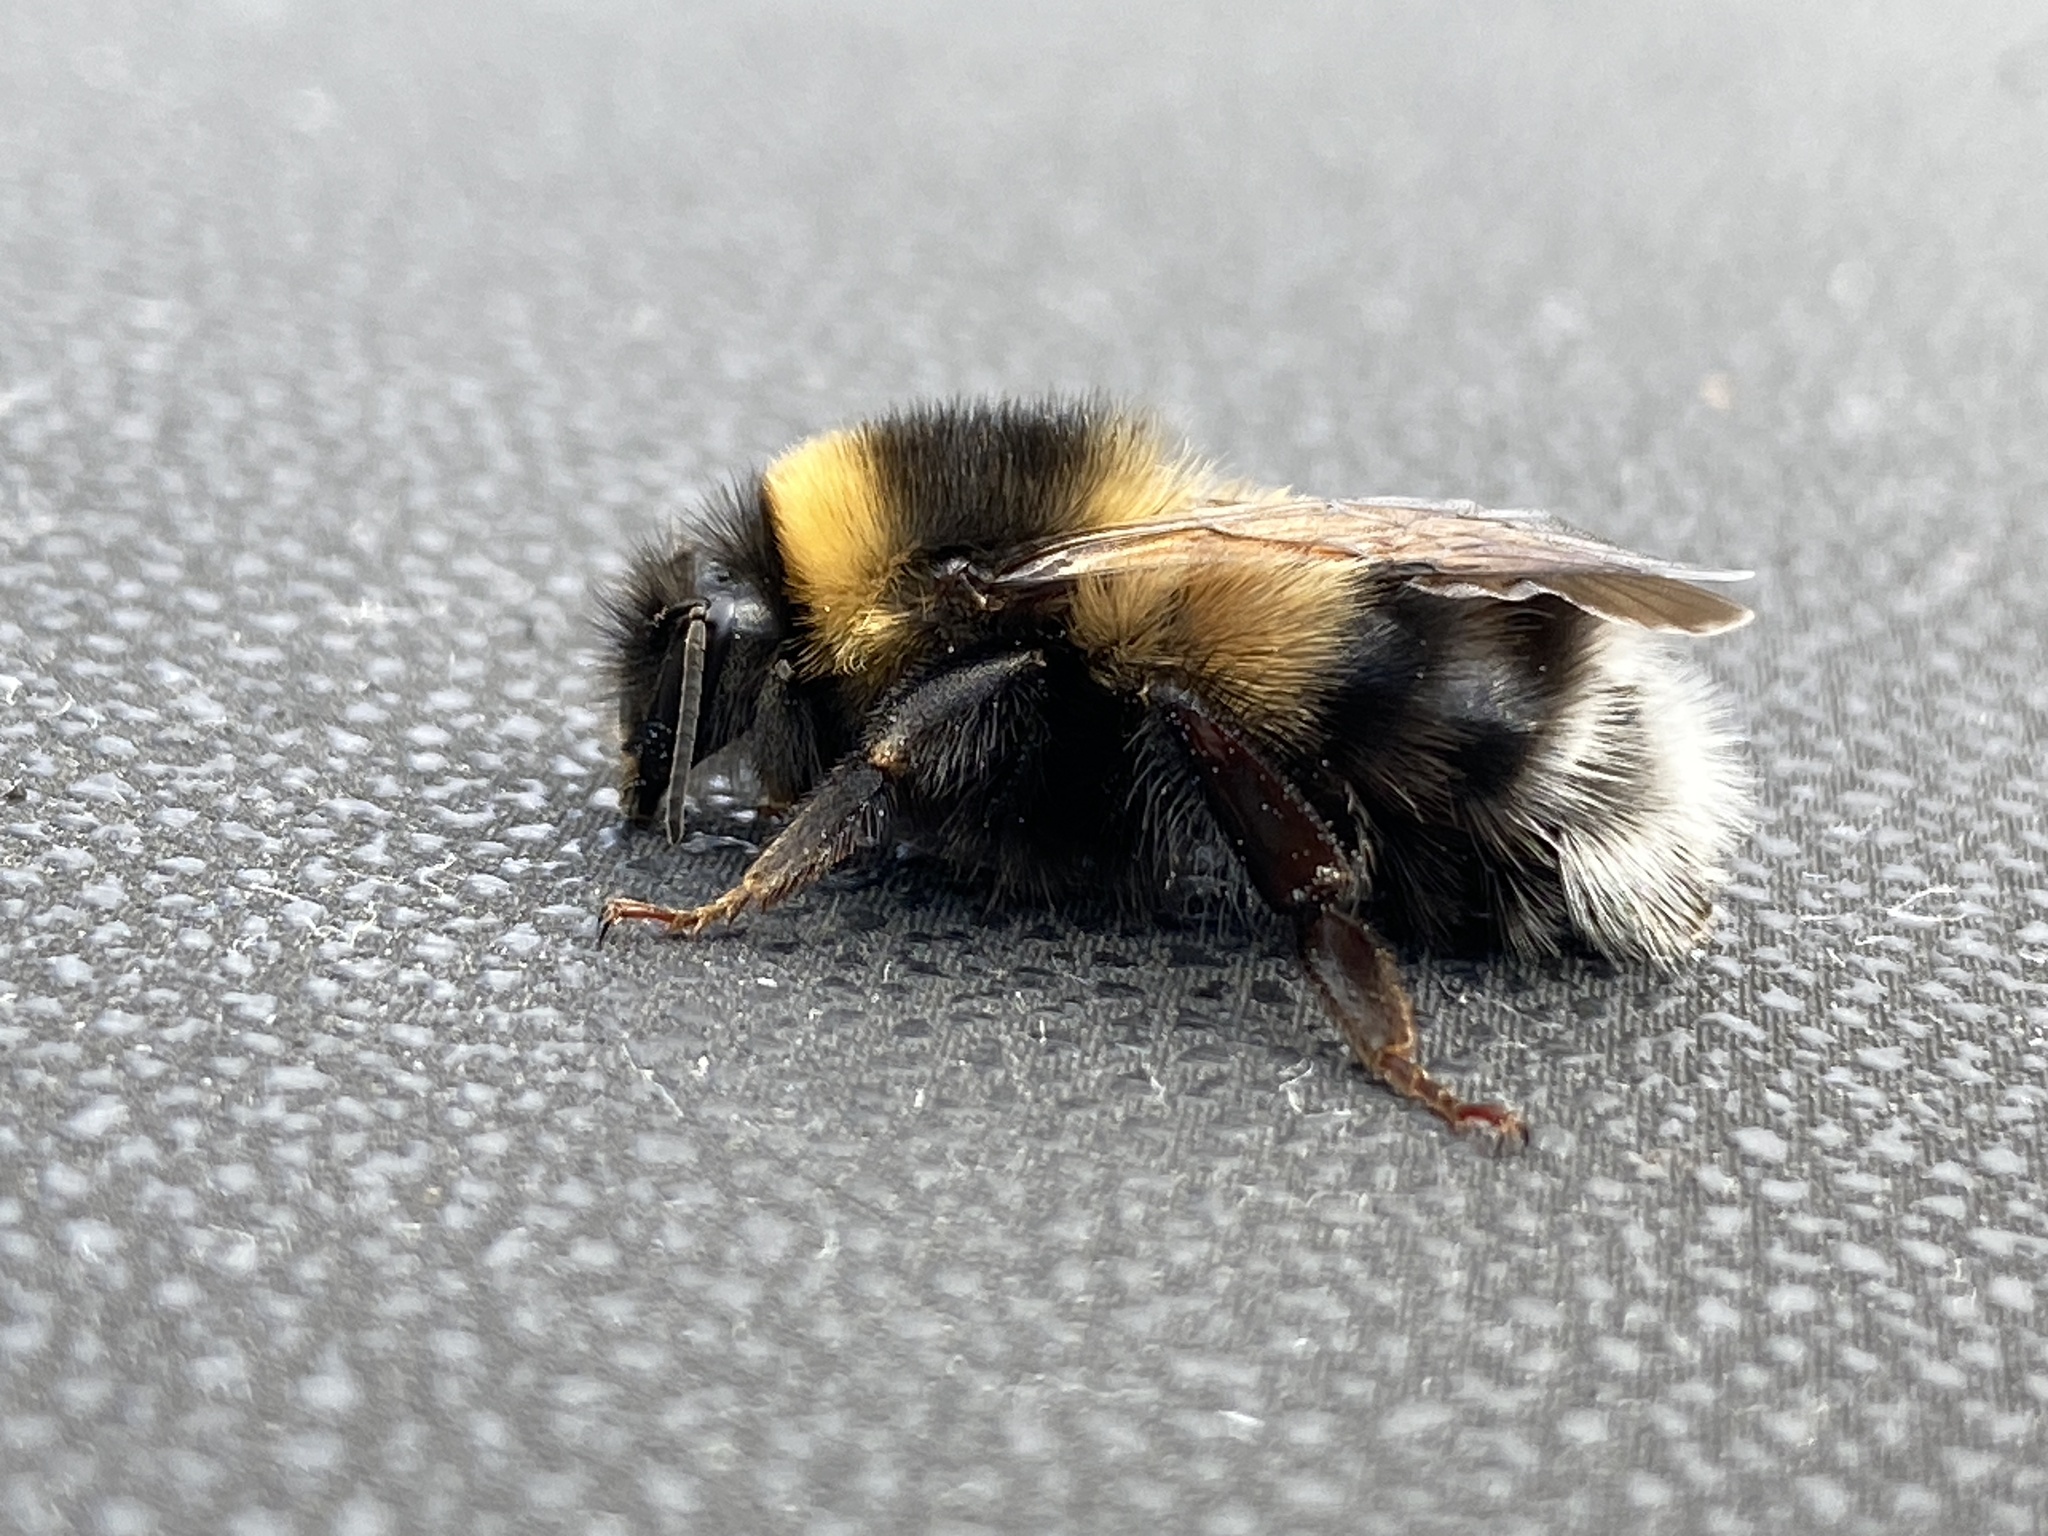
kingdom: Animalia
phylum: Arthropoda
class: Insecta
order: Hymenoptera
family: Apidae
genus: Bombus
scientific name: Bombus sporadicus
